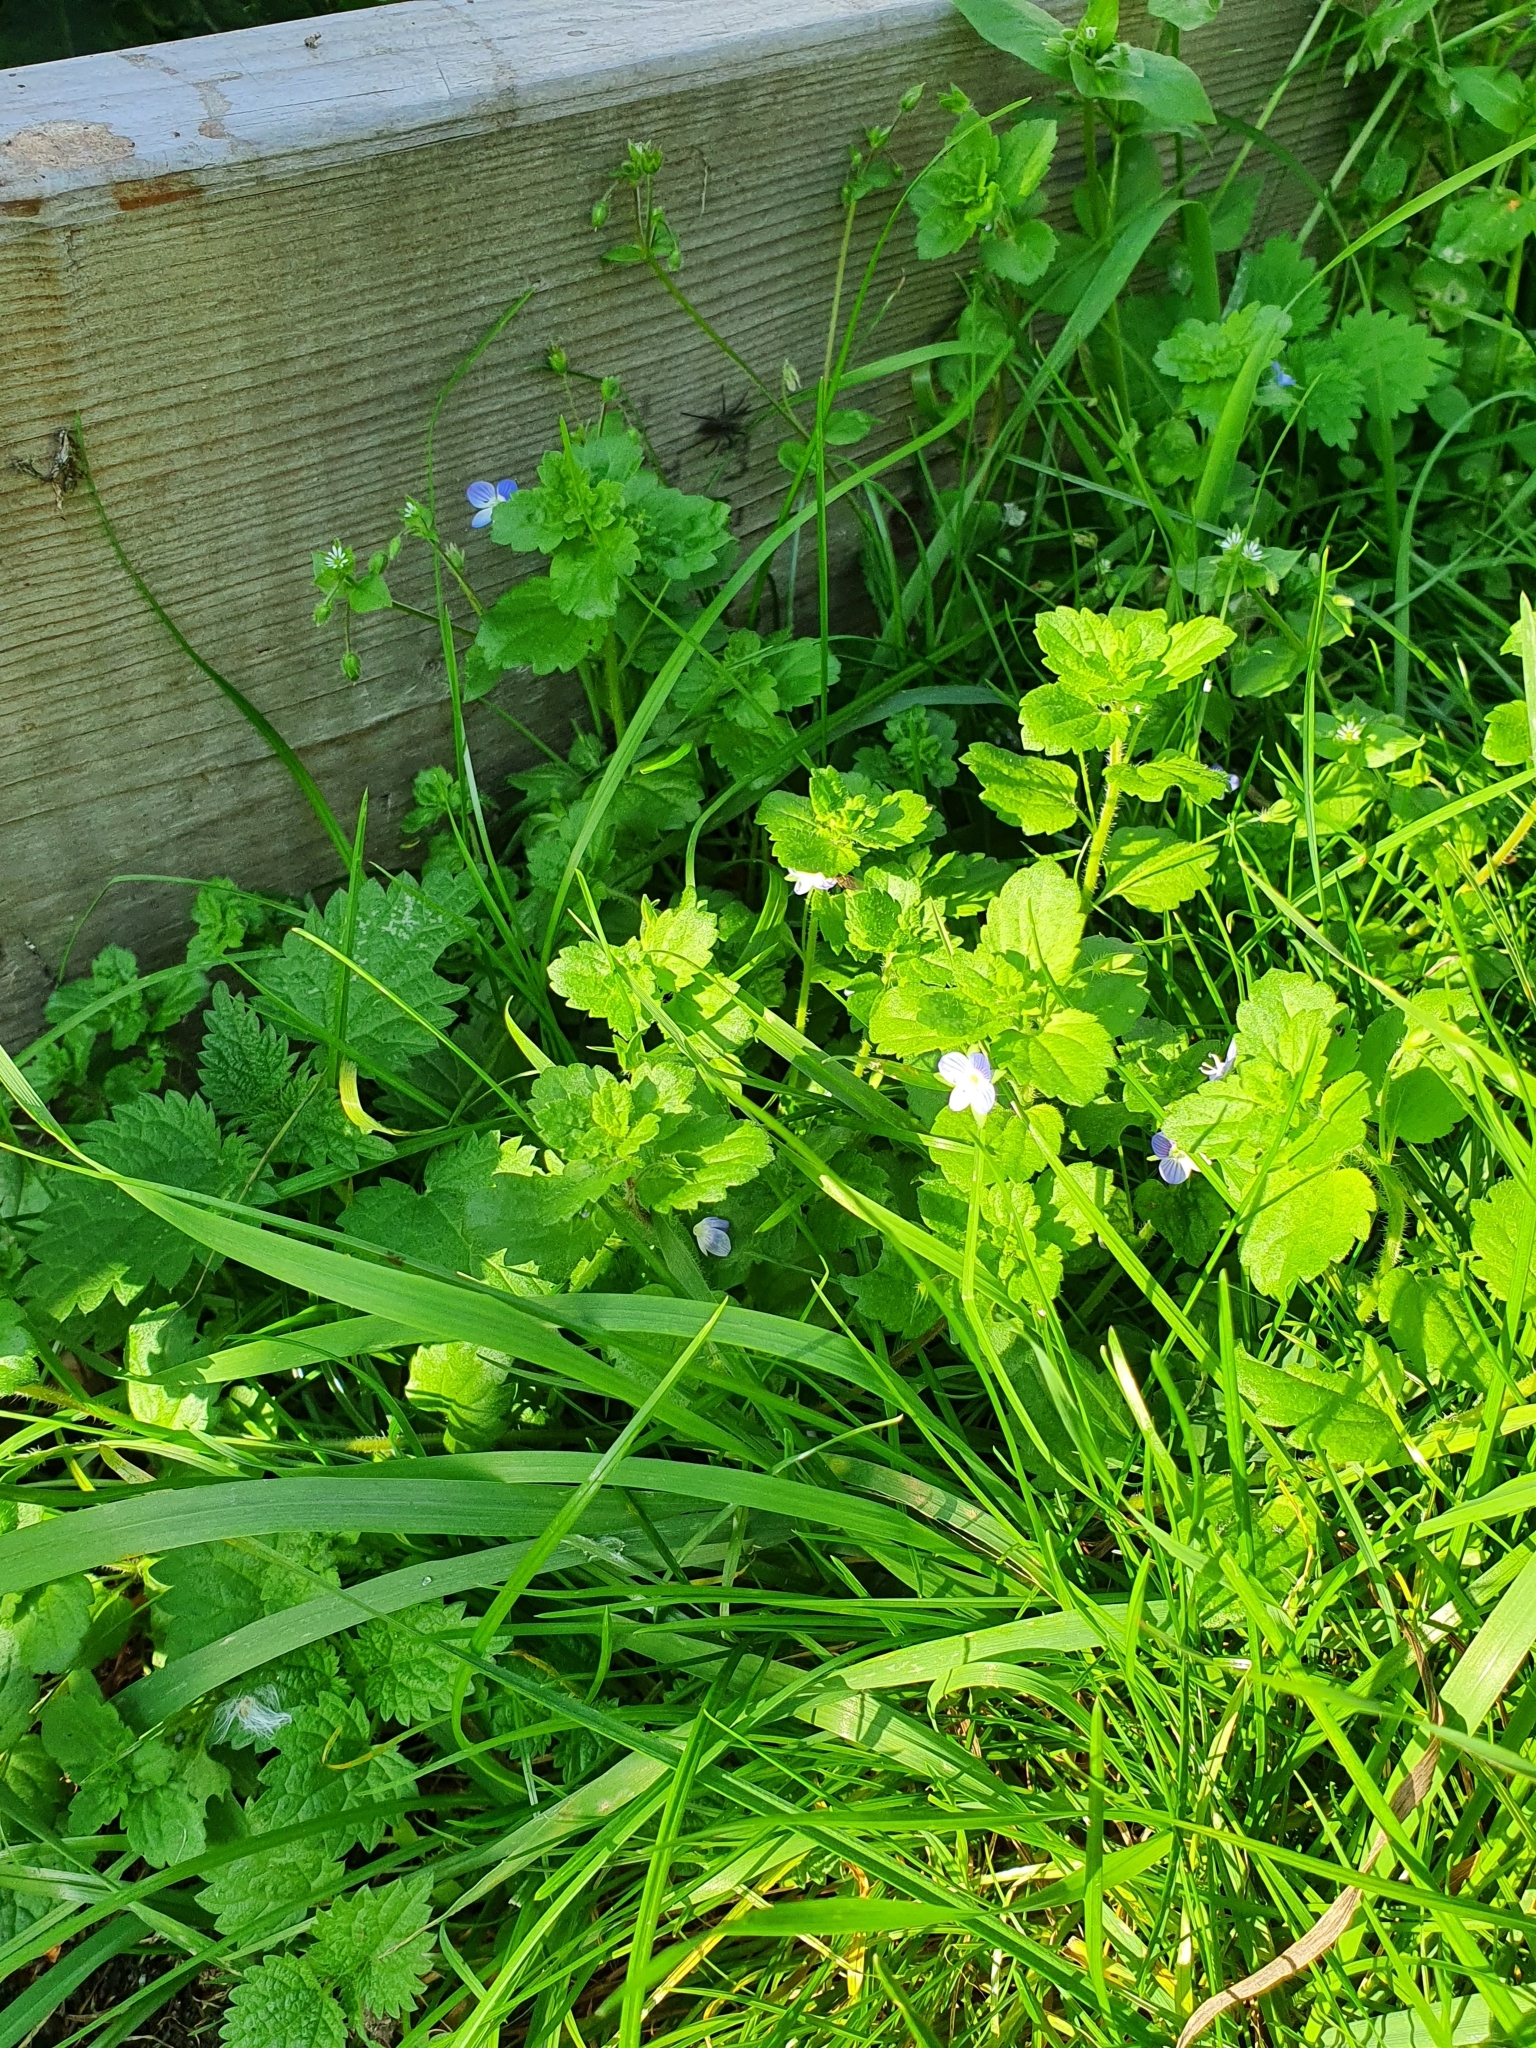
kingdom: Plantae
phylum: Tracheophyta
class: Magnoliopsida
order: Lamiales
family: Plantaginaceae
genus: Veronica
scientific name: Veronica persica
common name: Common field-speedwell
